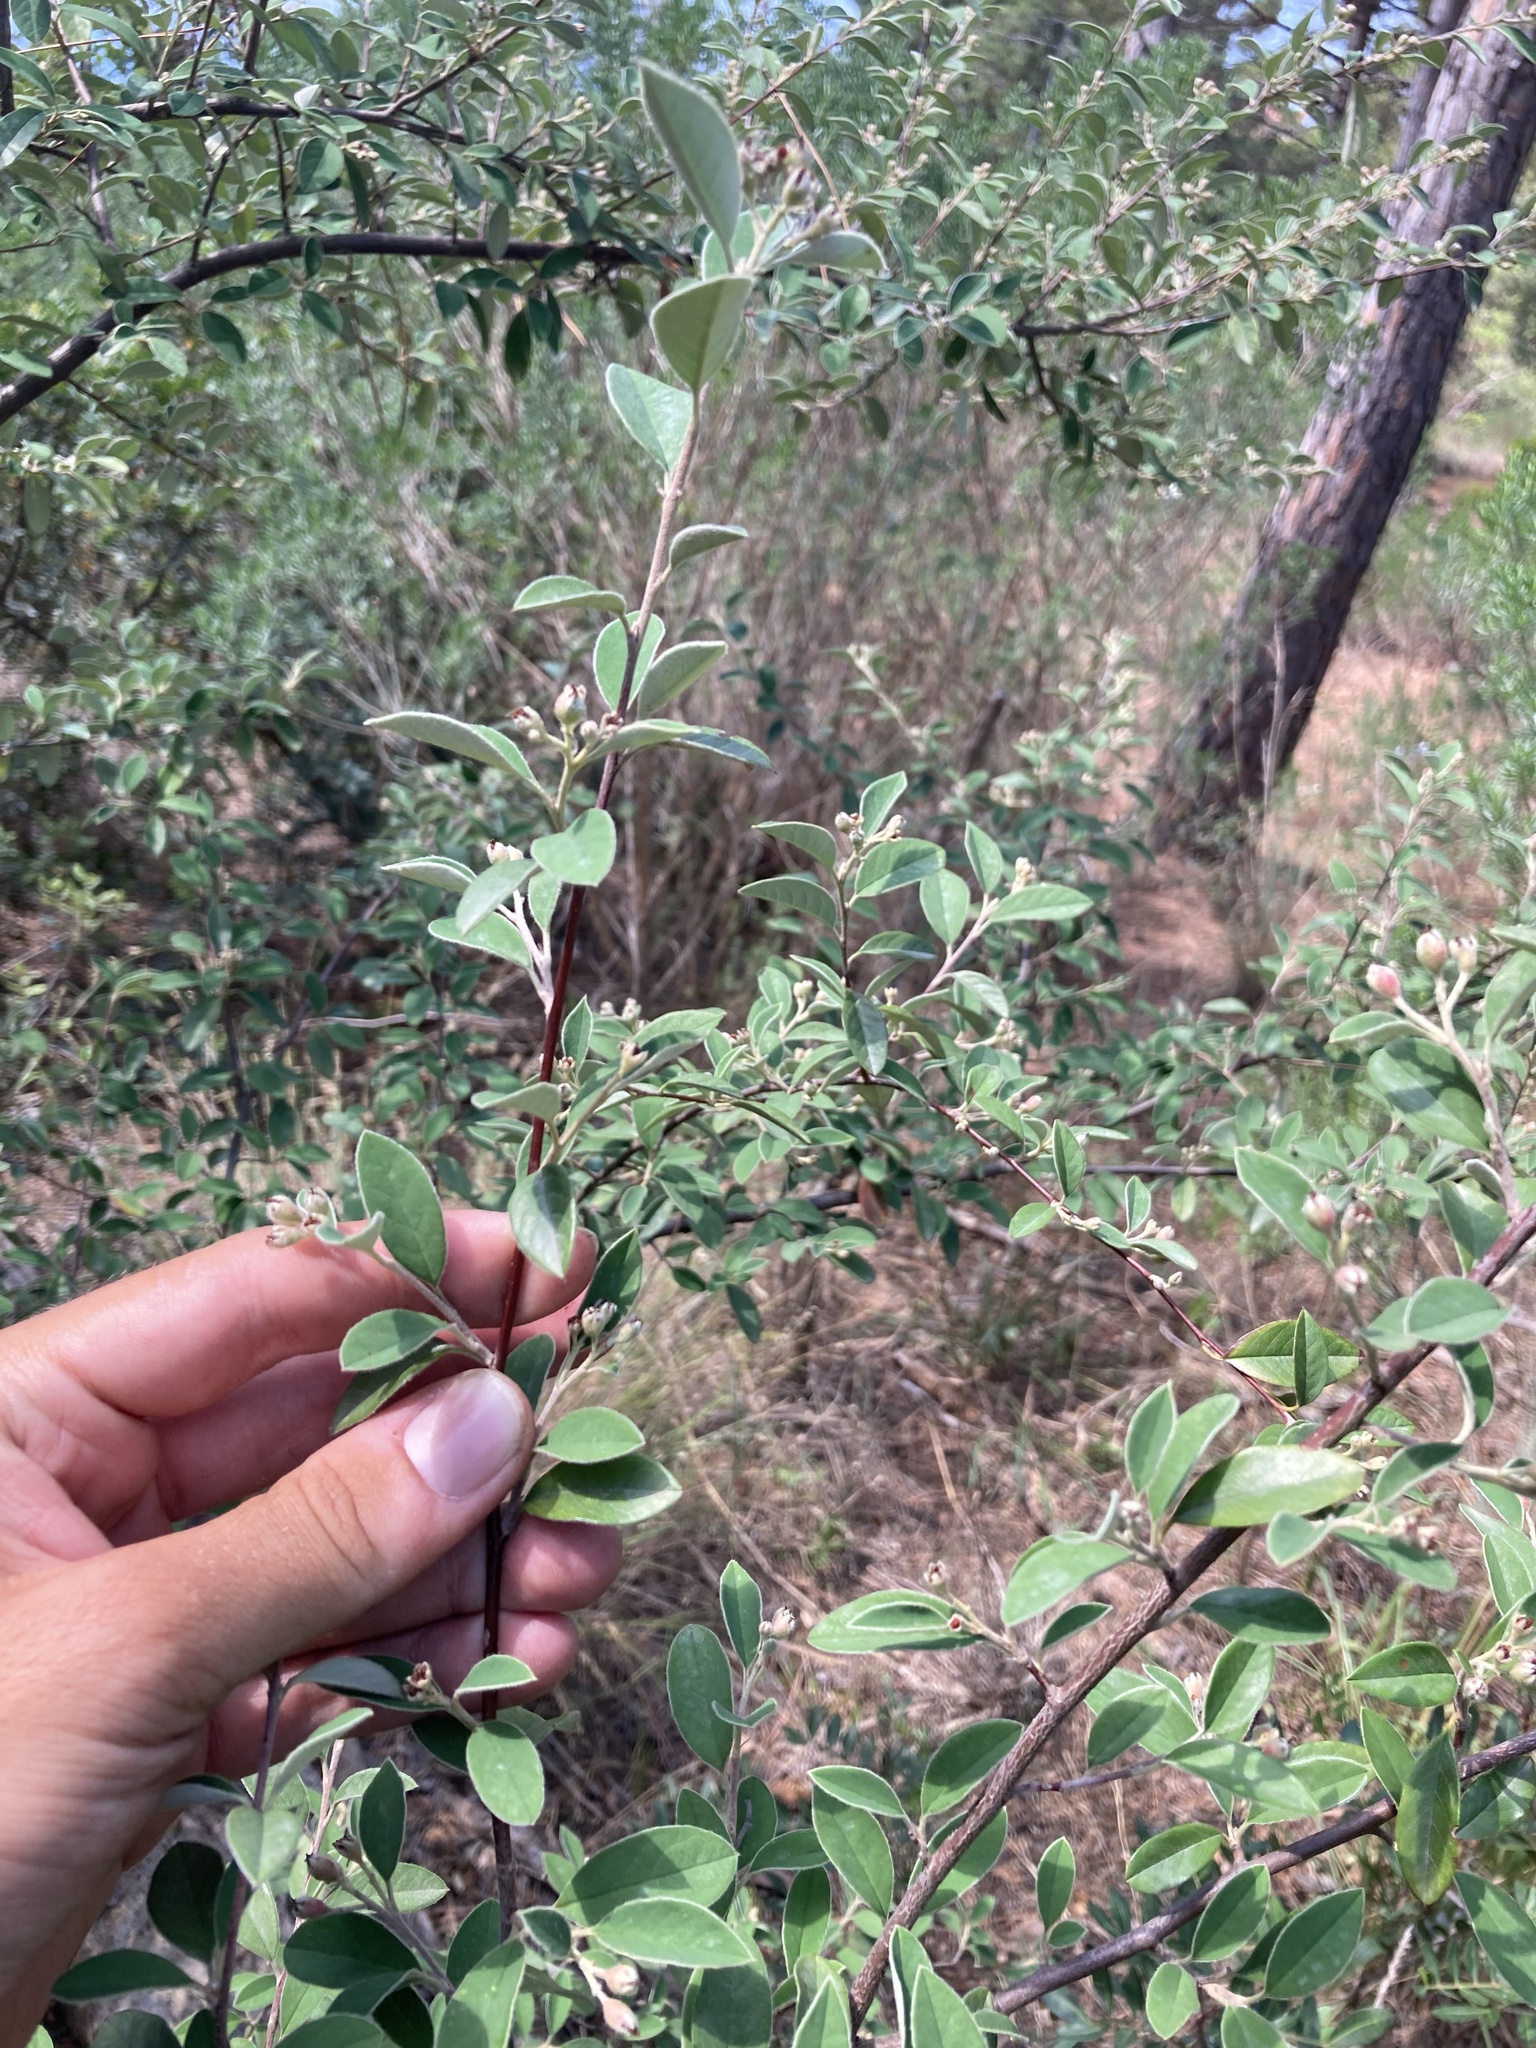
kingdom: Plantae
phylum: Tracheophyta
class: Magnoliopsida
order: Rosales
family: Rosaceae
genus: Cotoneaster
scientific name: Cotoneaster pannosus
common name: Silverleaf cotoneaster
